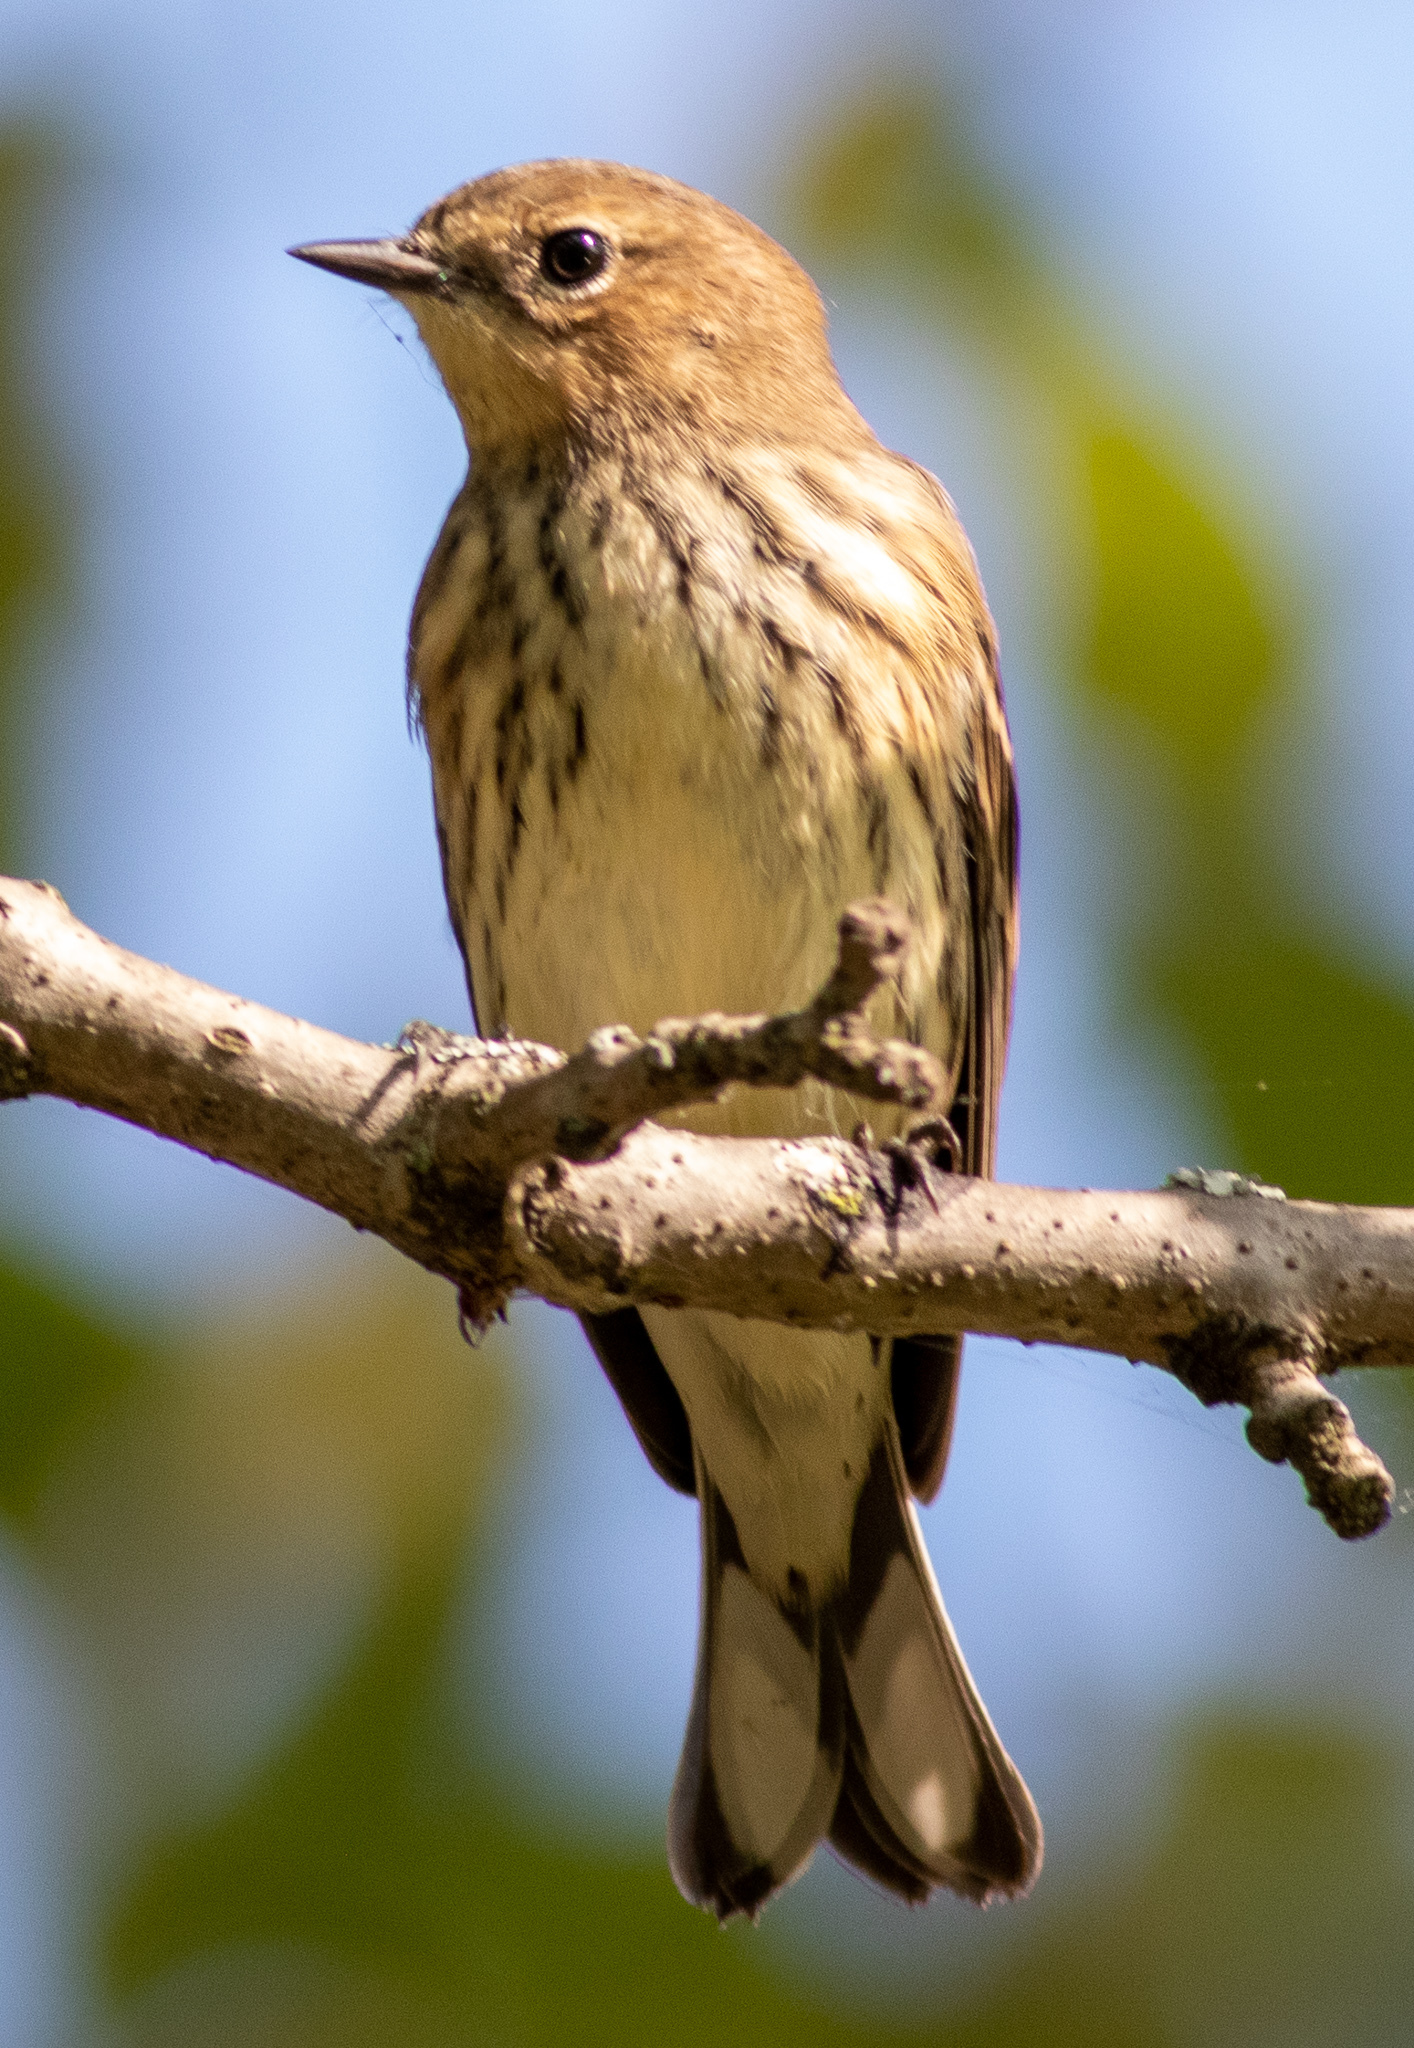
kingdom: Animalia
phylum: Chordata
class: Aves
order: Passeriformes
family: Parulidae
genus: Setophaga
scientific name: Setophaga coronata
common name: Myrtle warbler
